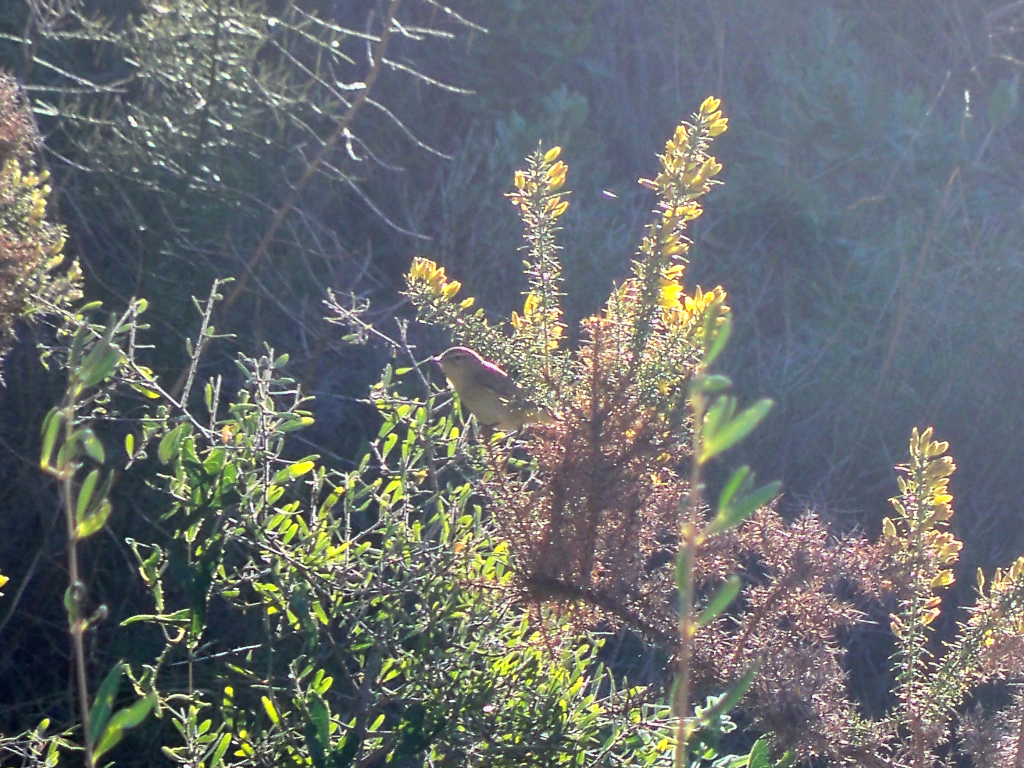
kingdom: Animalia
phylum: Chordata
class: Aves
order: Passeriformes
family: Phylloscopidae
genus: Phylloscopus
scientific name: Phylloscopus collybita
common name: Common chiffchaff
